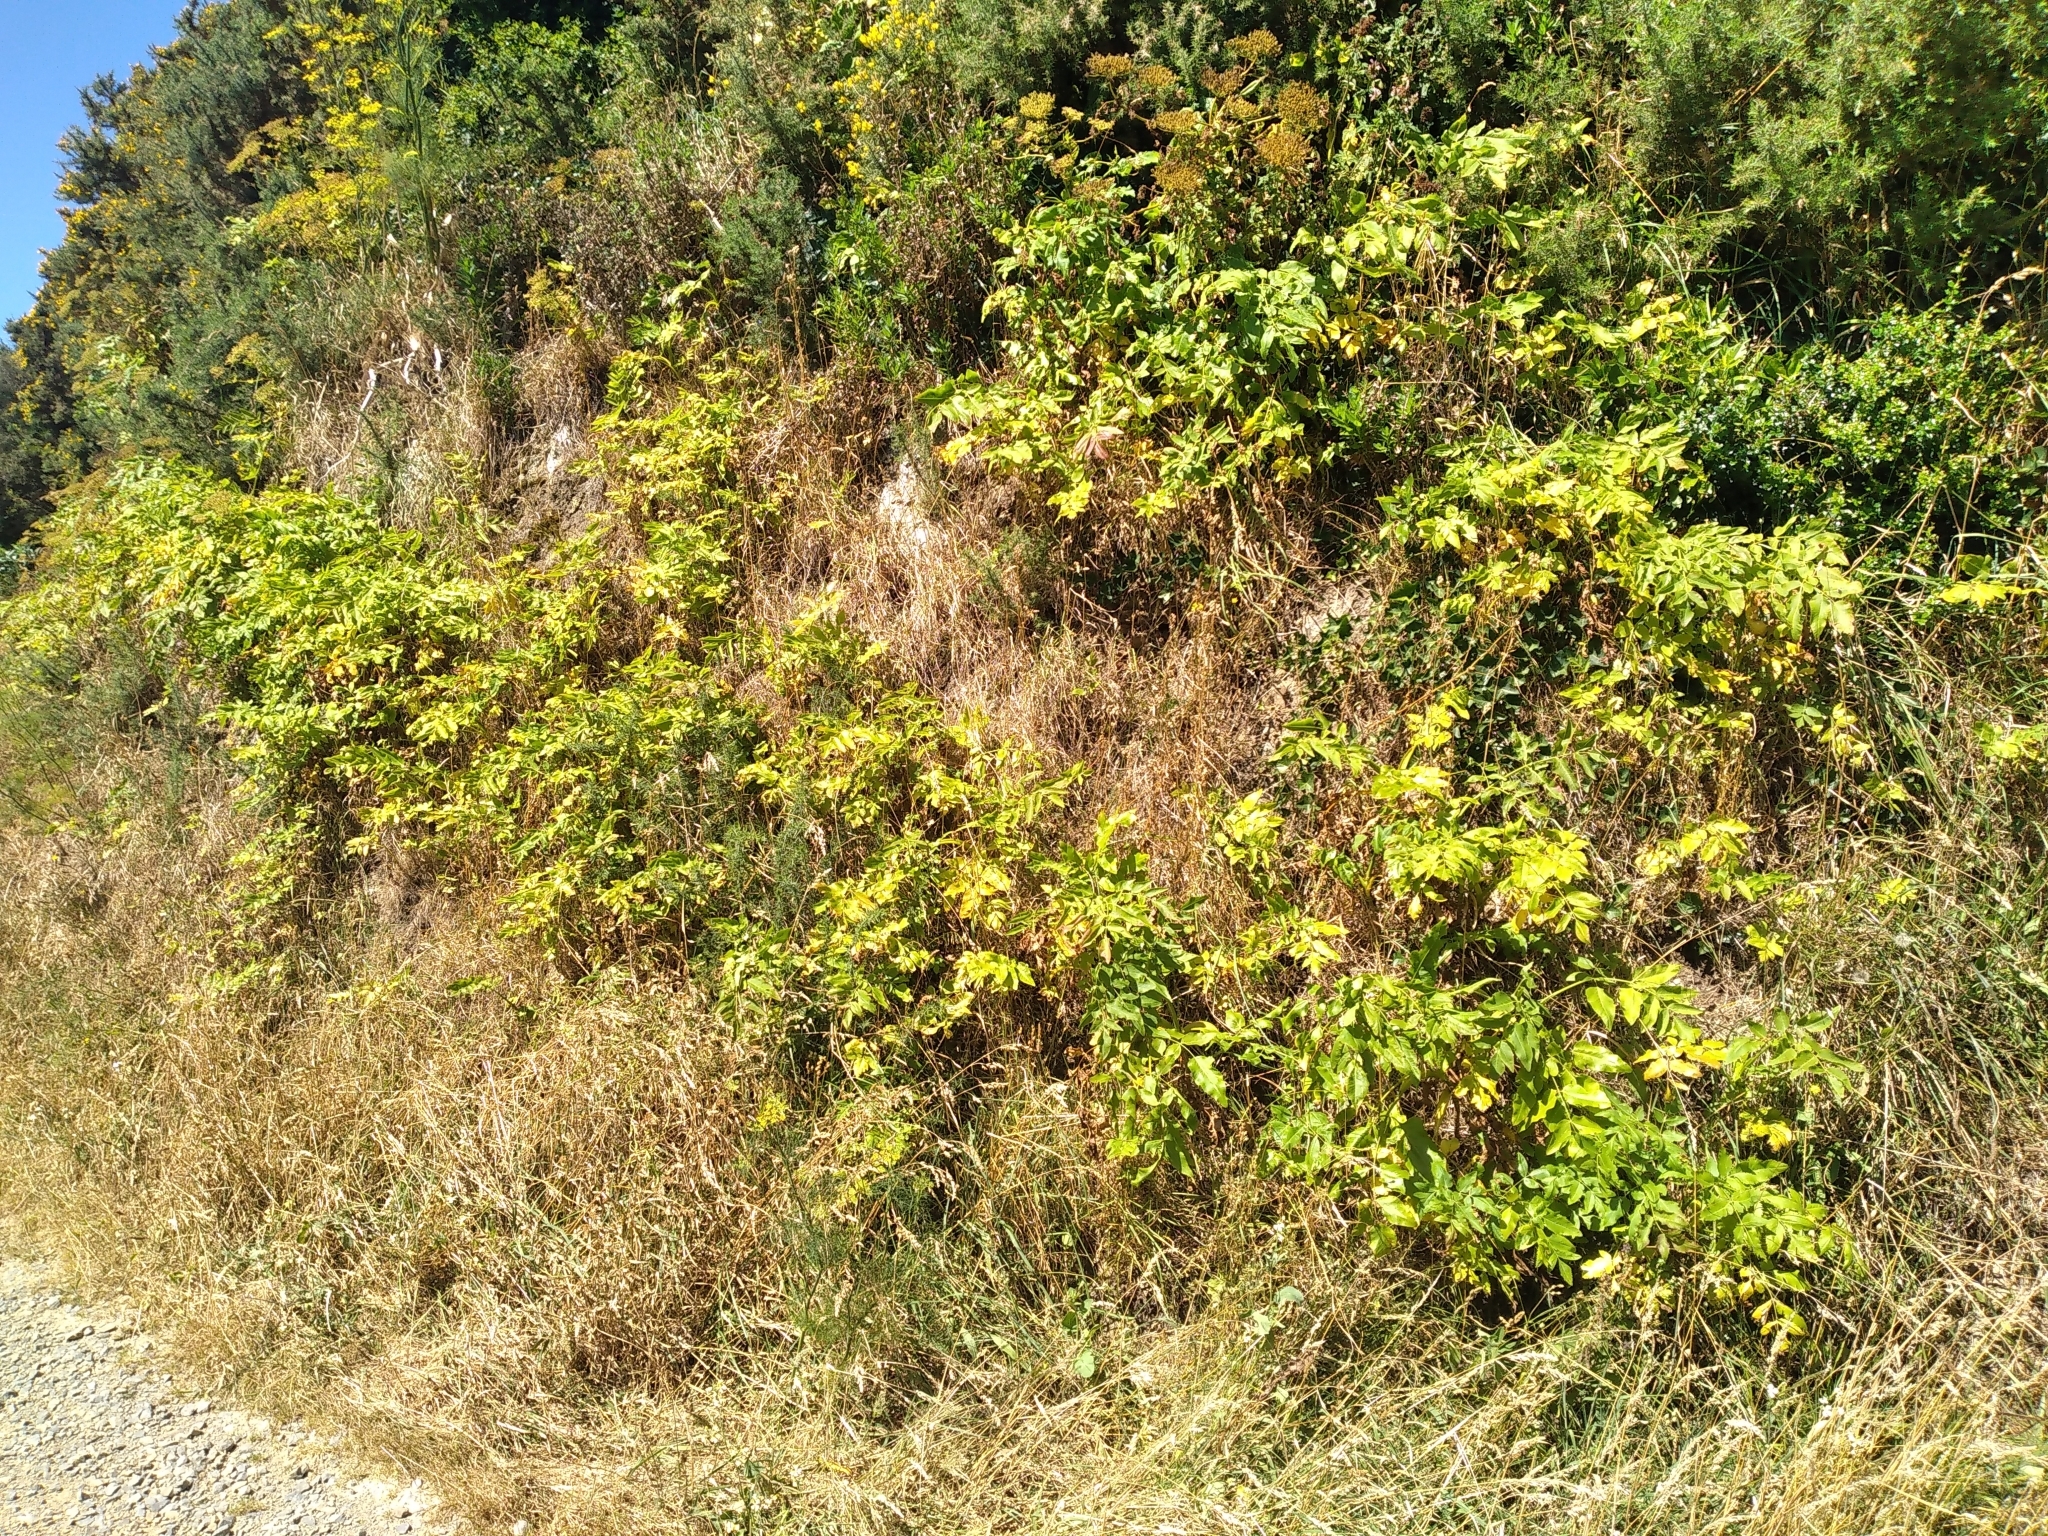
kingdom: Plantae
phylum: Tracheophyta
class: Magnoliopsida
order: Apiales
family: Apiaceae
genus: Daucus
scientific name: Daucus decipiens
